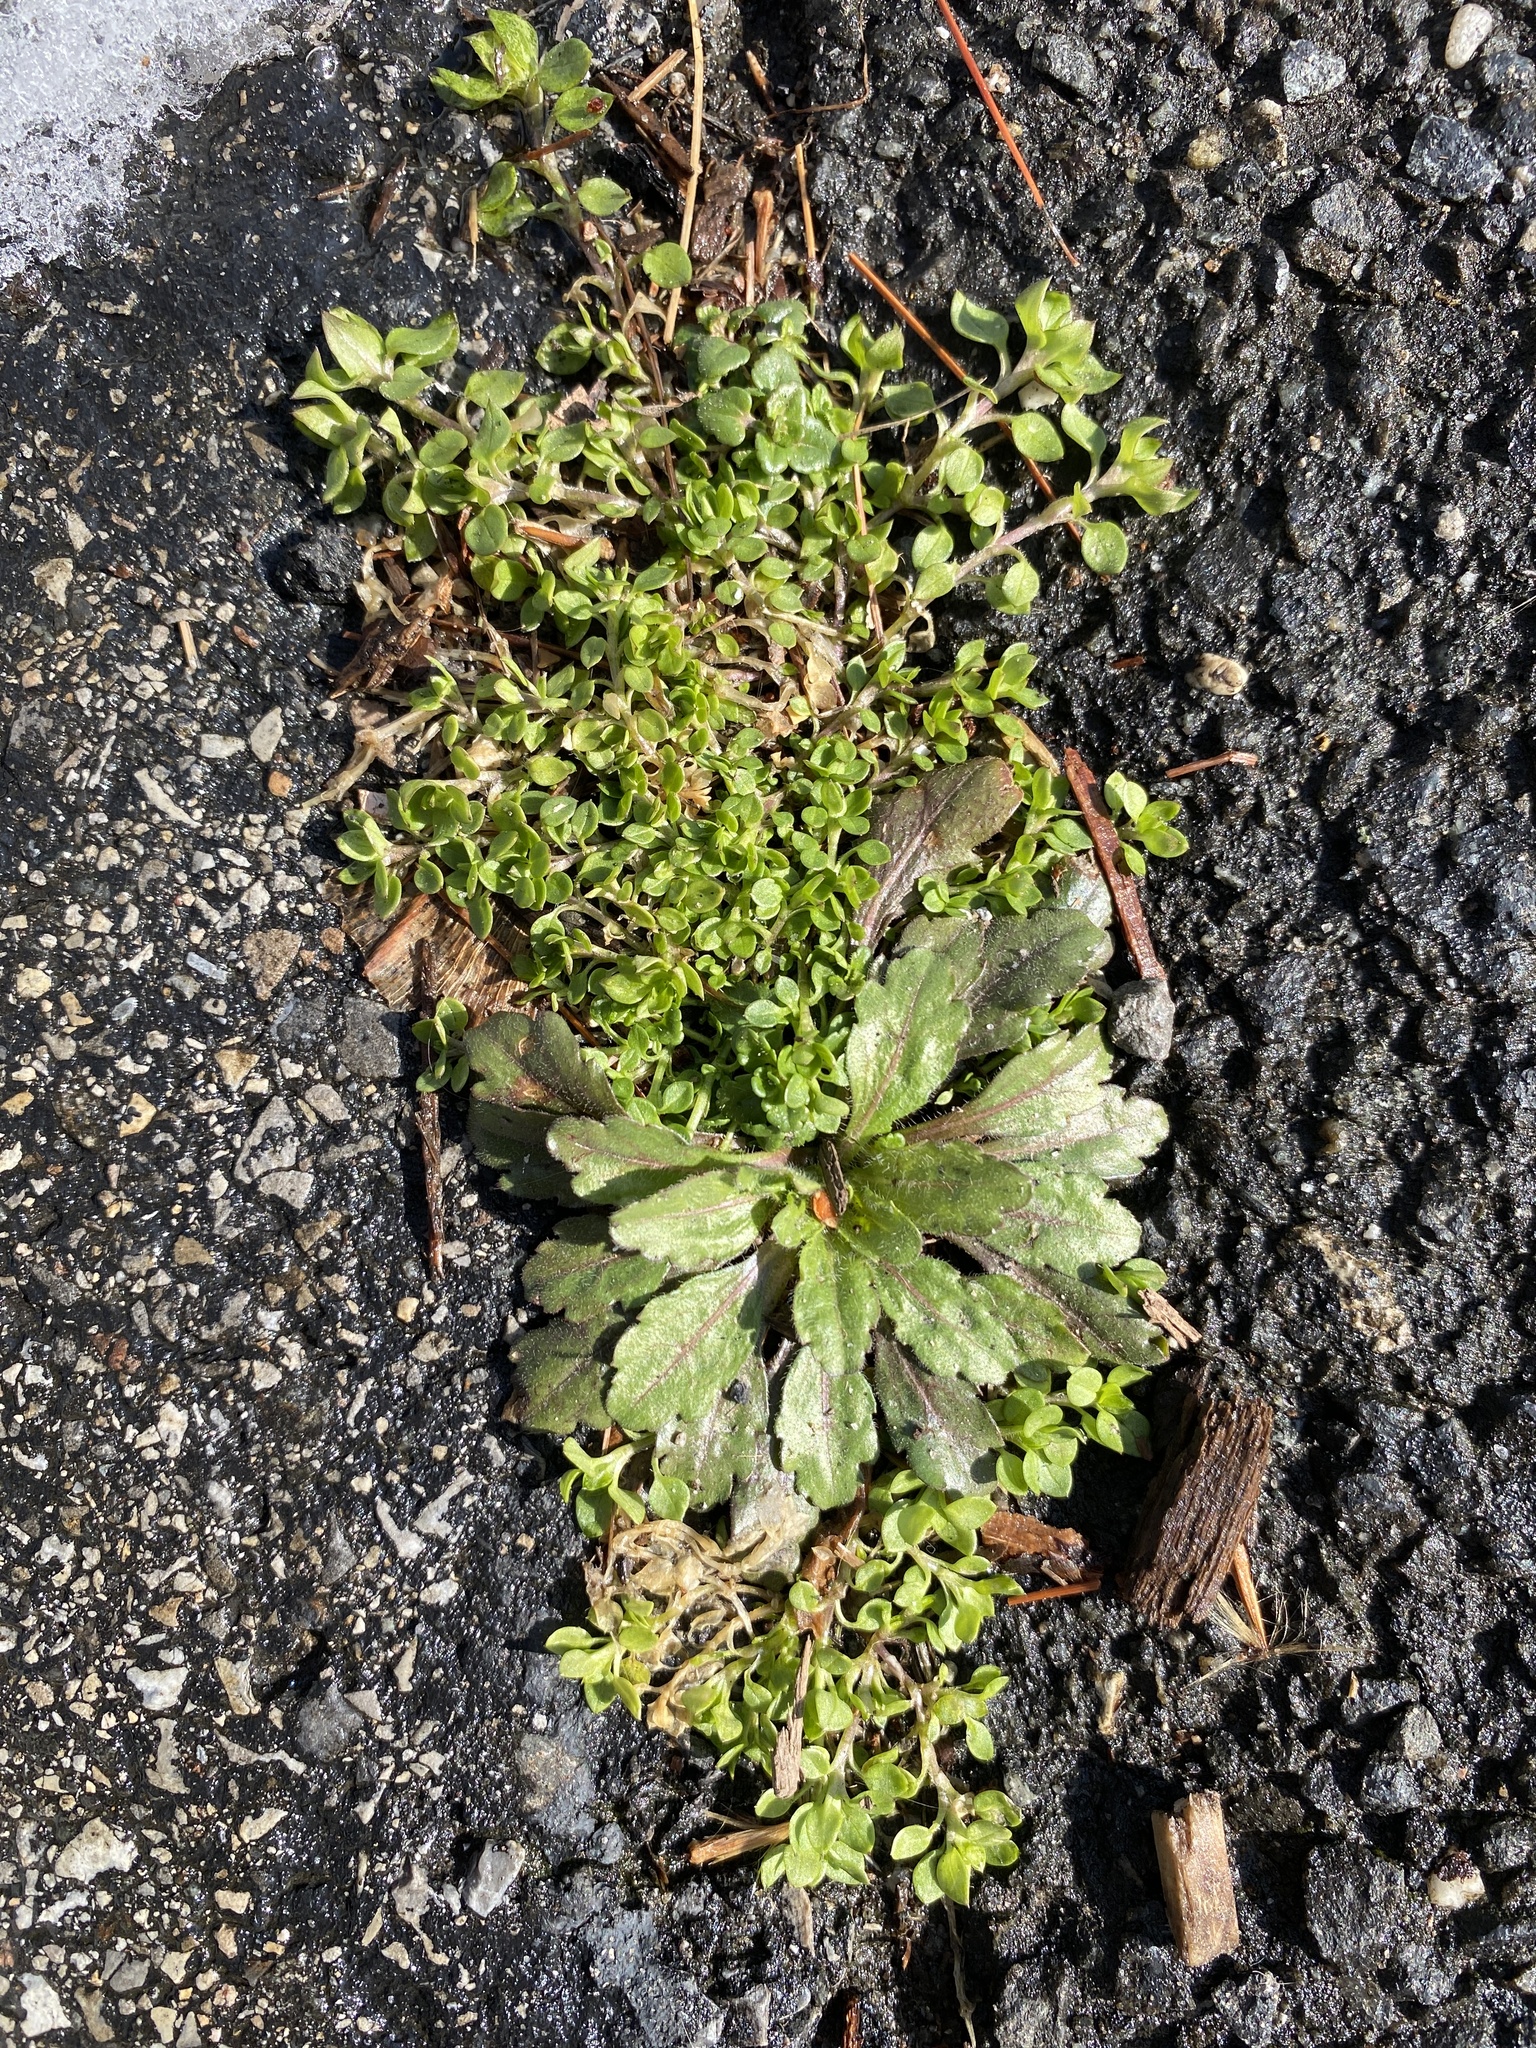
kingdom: Plantae
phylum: Tracheophyta
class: Magnoliopsida
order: Caryophyllales
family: Caryophyllaceae
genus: Stellaria
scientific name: Stellaria media
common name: Common chickweed
